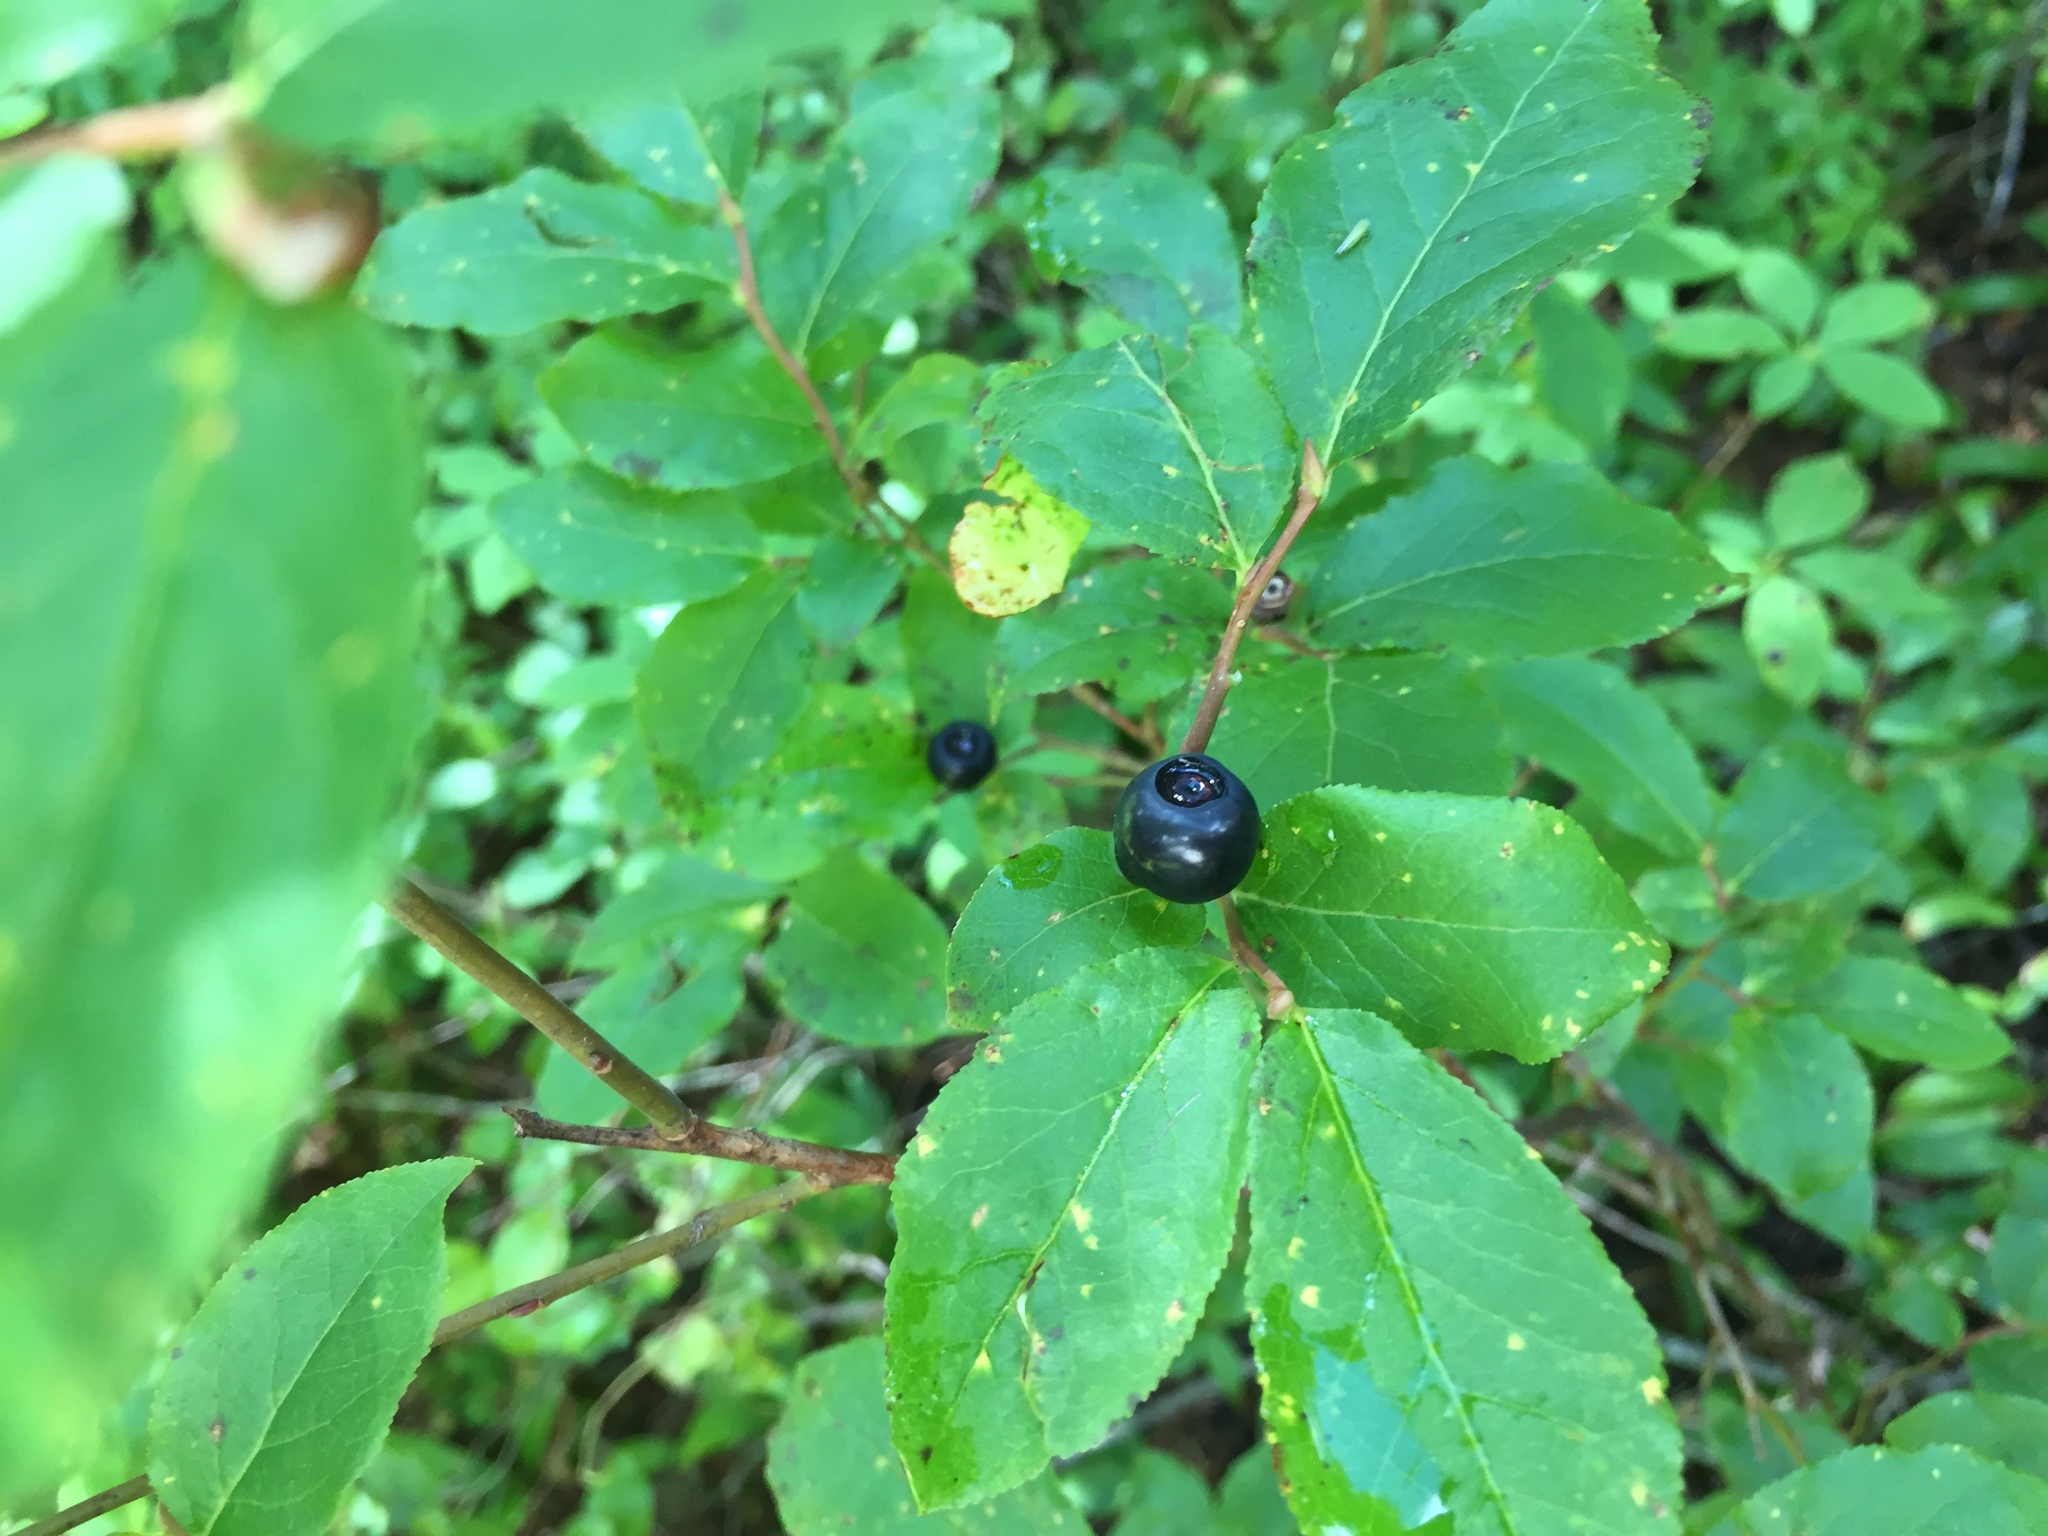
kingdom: Plantae
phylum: Tracheophyta
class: Magnoliopsida
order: Ericales
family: Ericaceae
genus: Vaccinium
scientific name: Vaccinium membranaceum
